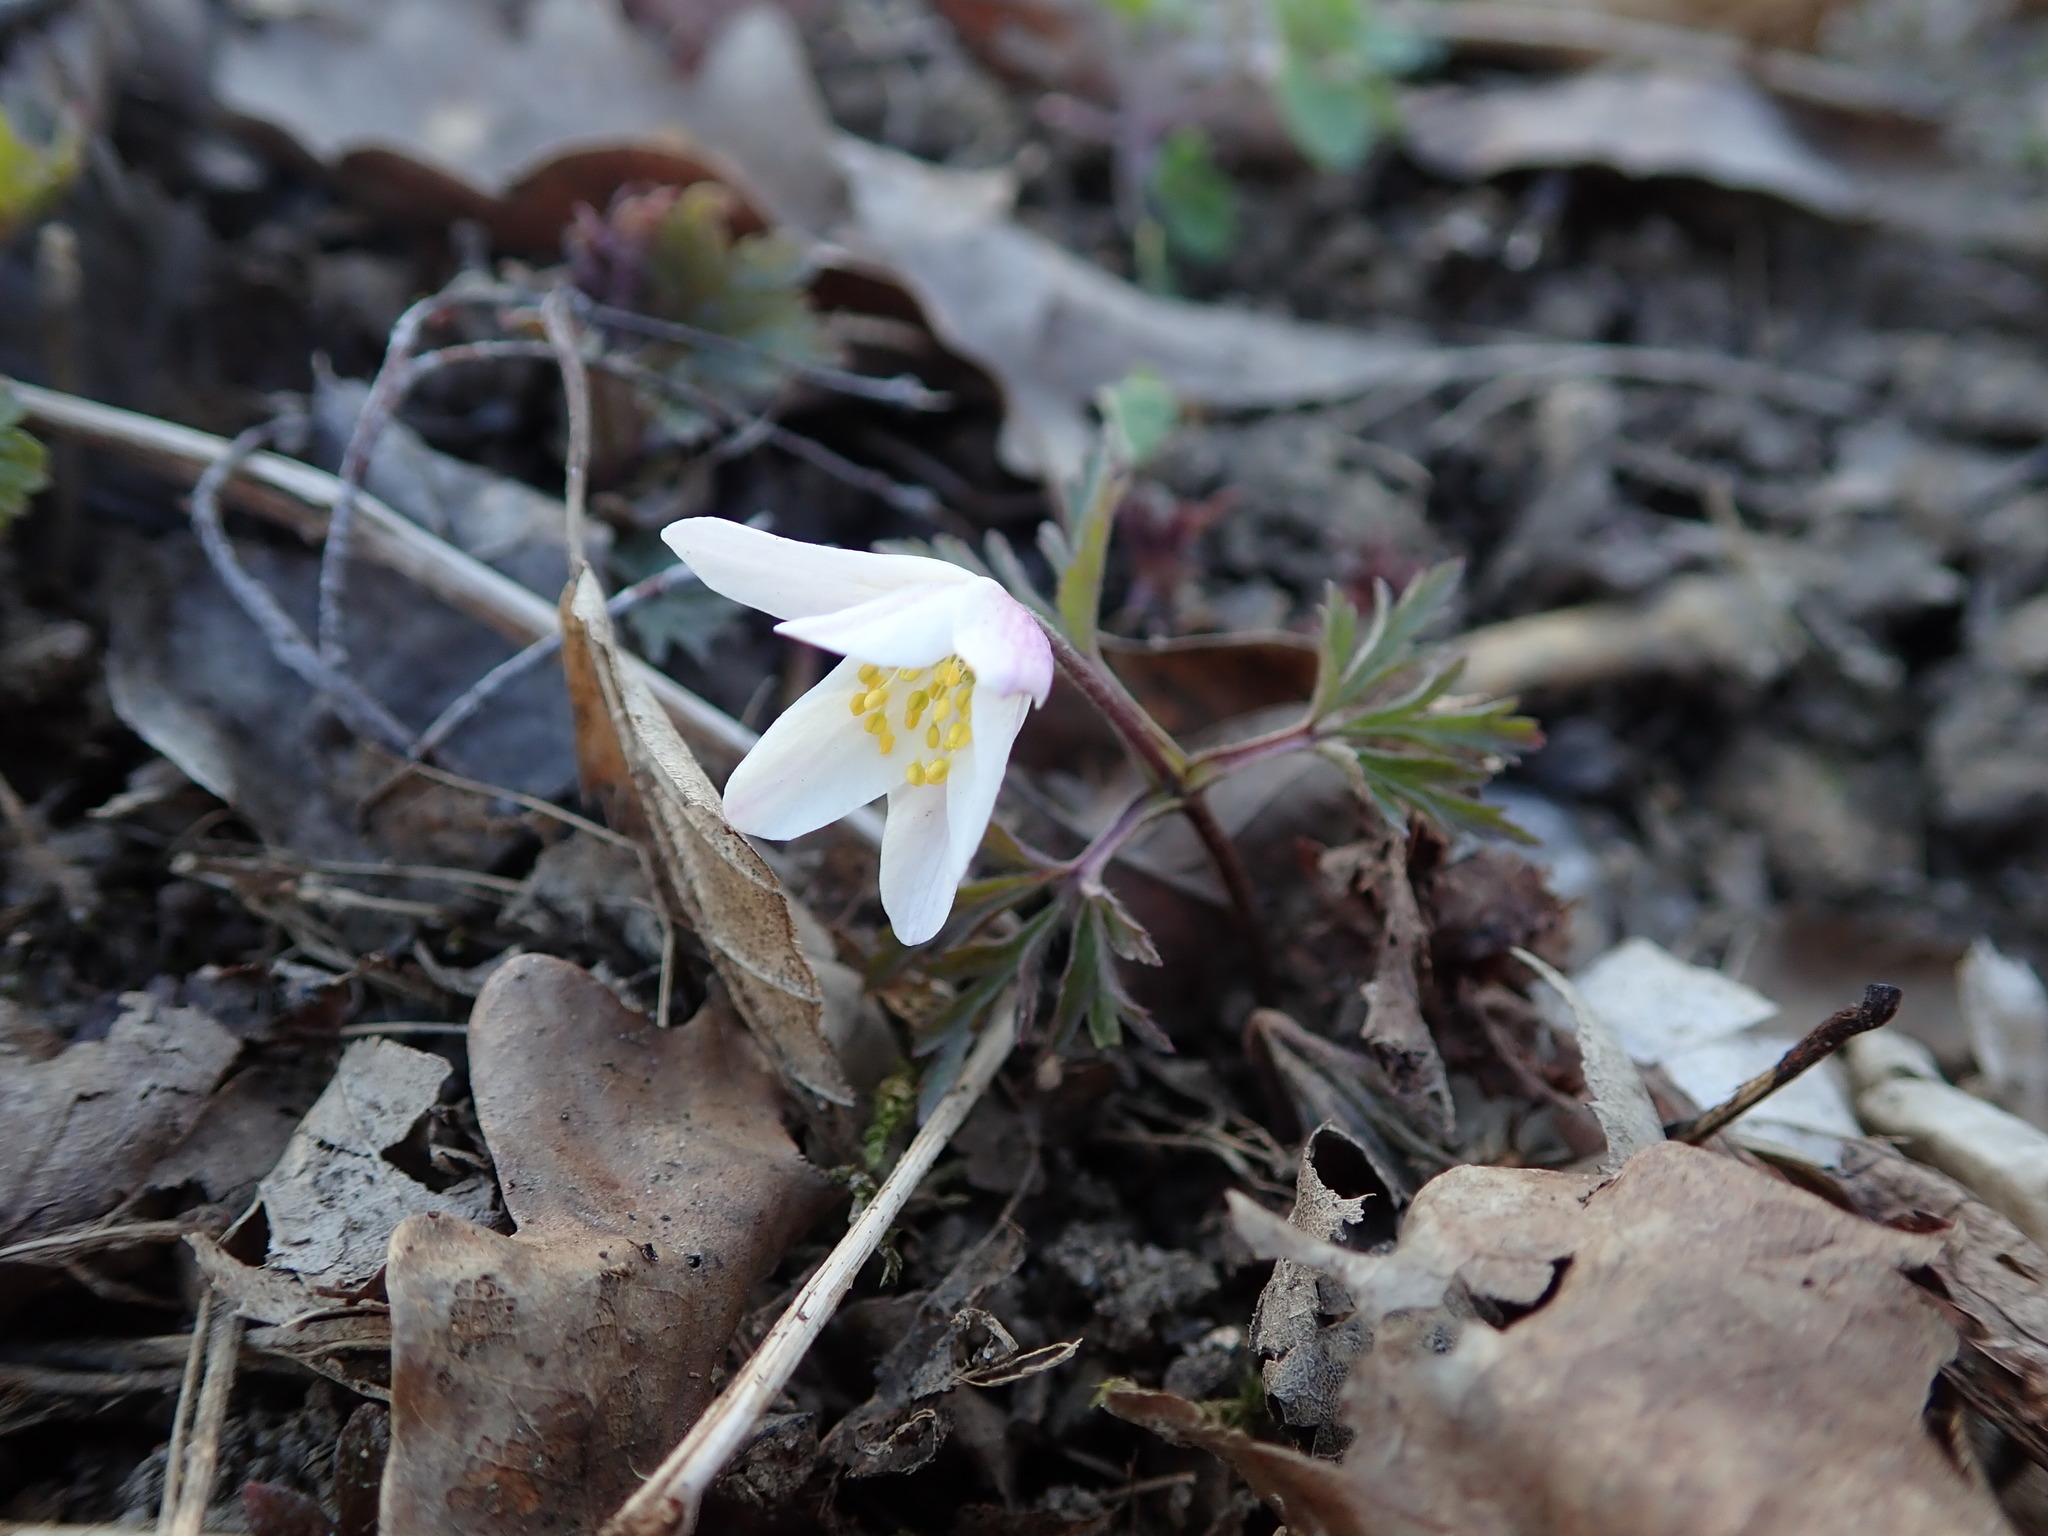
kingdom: Plantae
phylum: Tracheophyta
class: Magnoliopsida
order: Ranunculales
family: Ranunculaceae
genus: Anemone
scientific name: Anemone nemorosa
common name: Wood anemone
